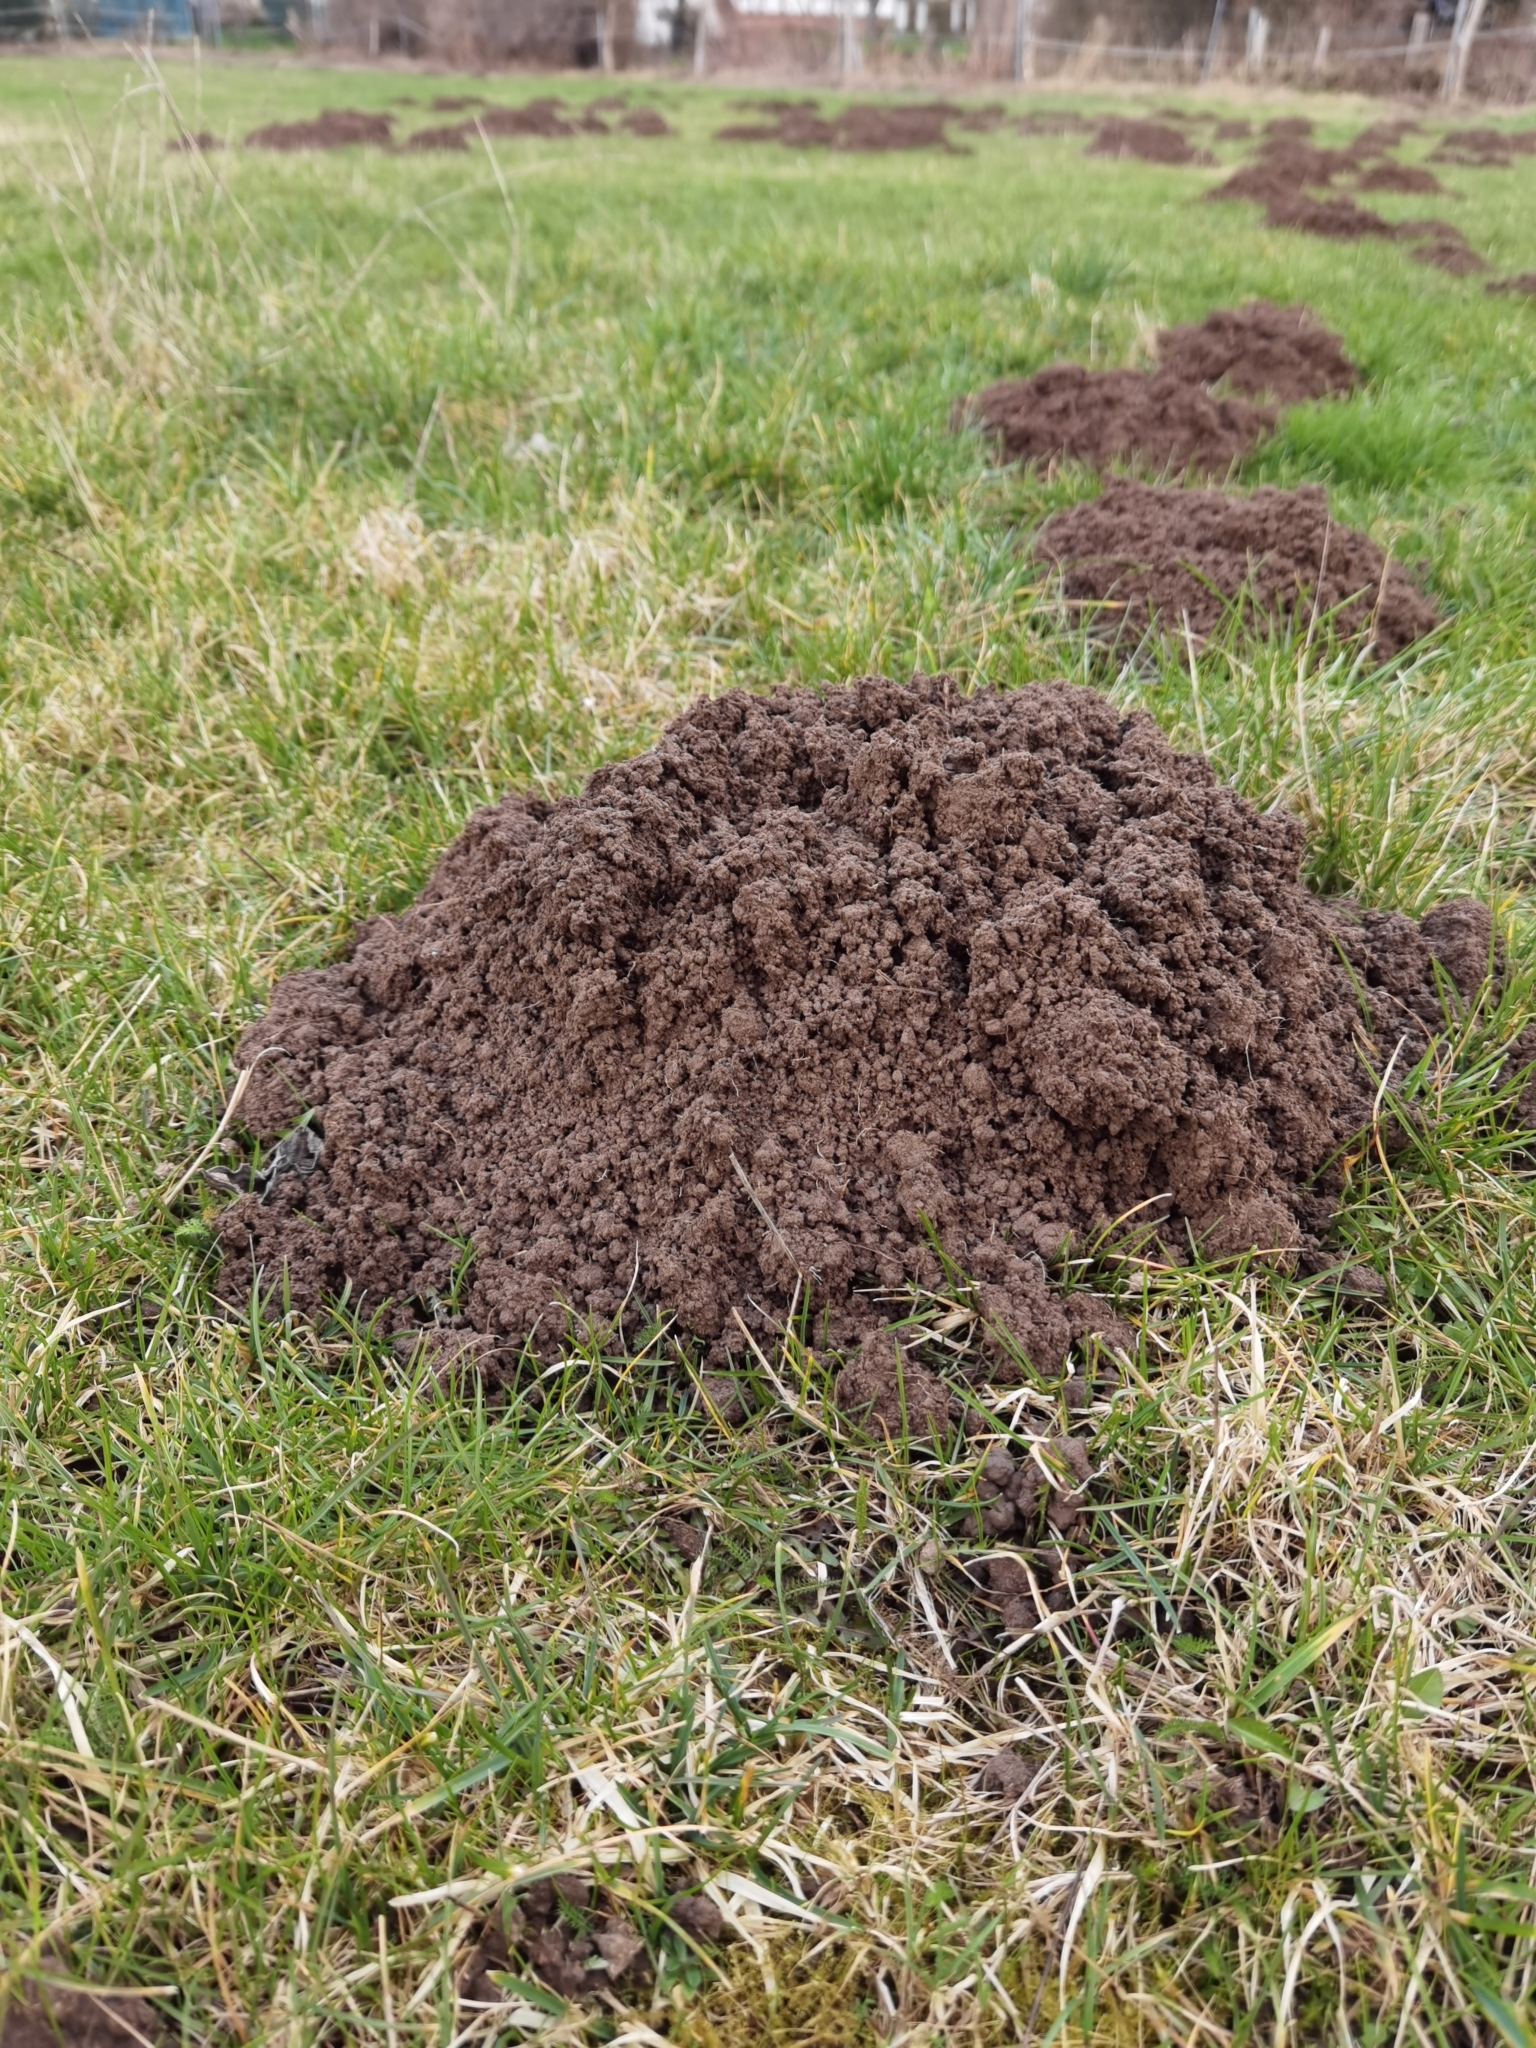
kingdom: Animalia
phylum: Chordata
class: Mammalia
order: Soricomorpha
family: Talpidae
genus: Talpa
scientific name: Talpa europaea
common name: European mole
